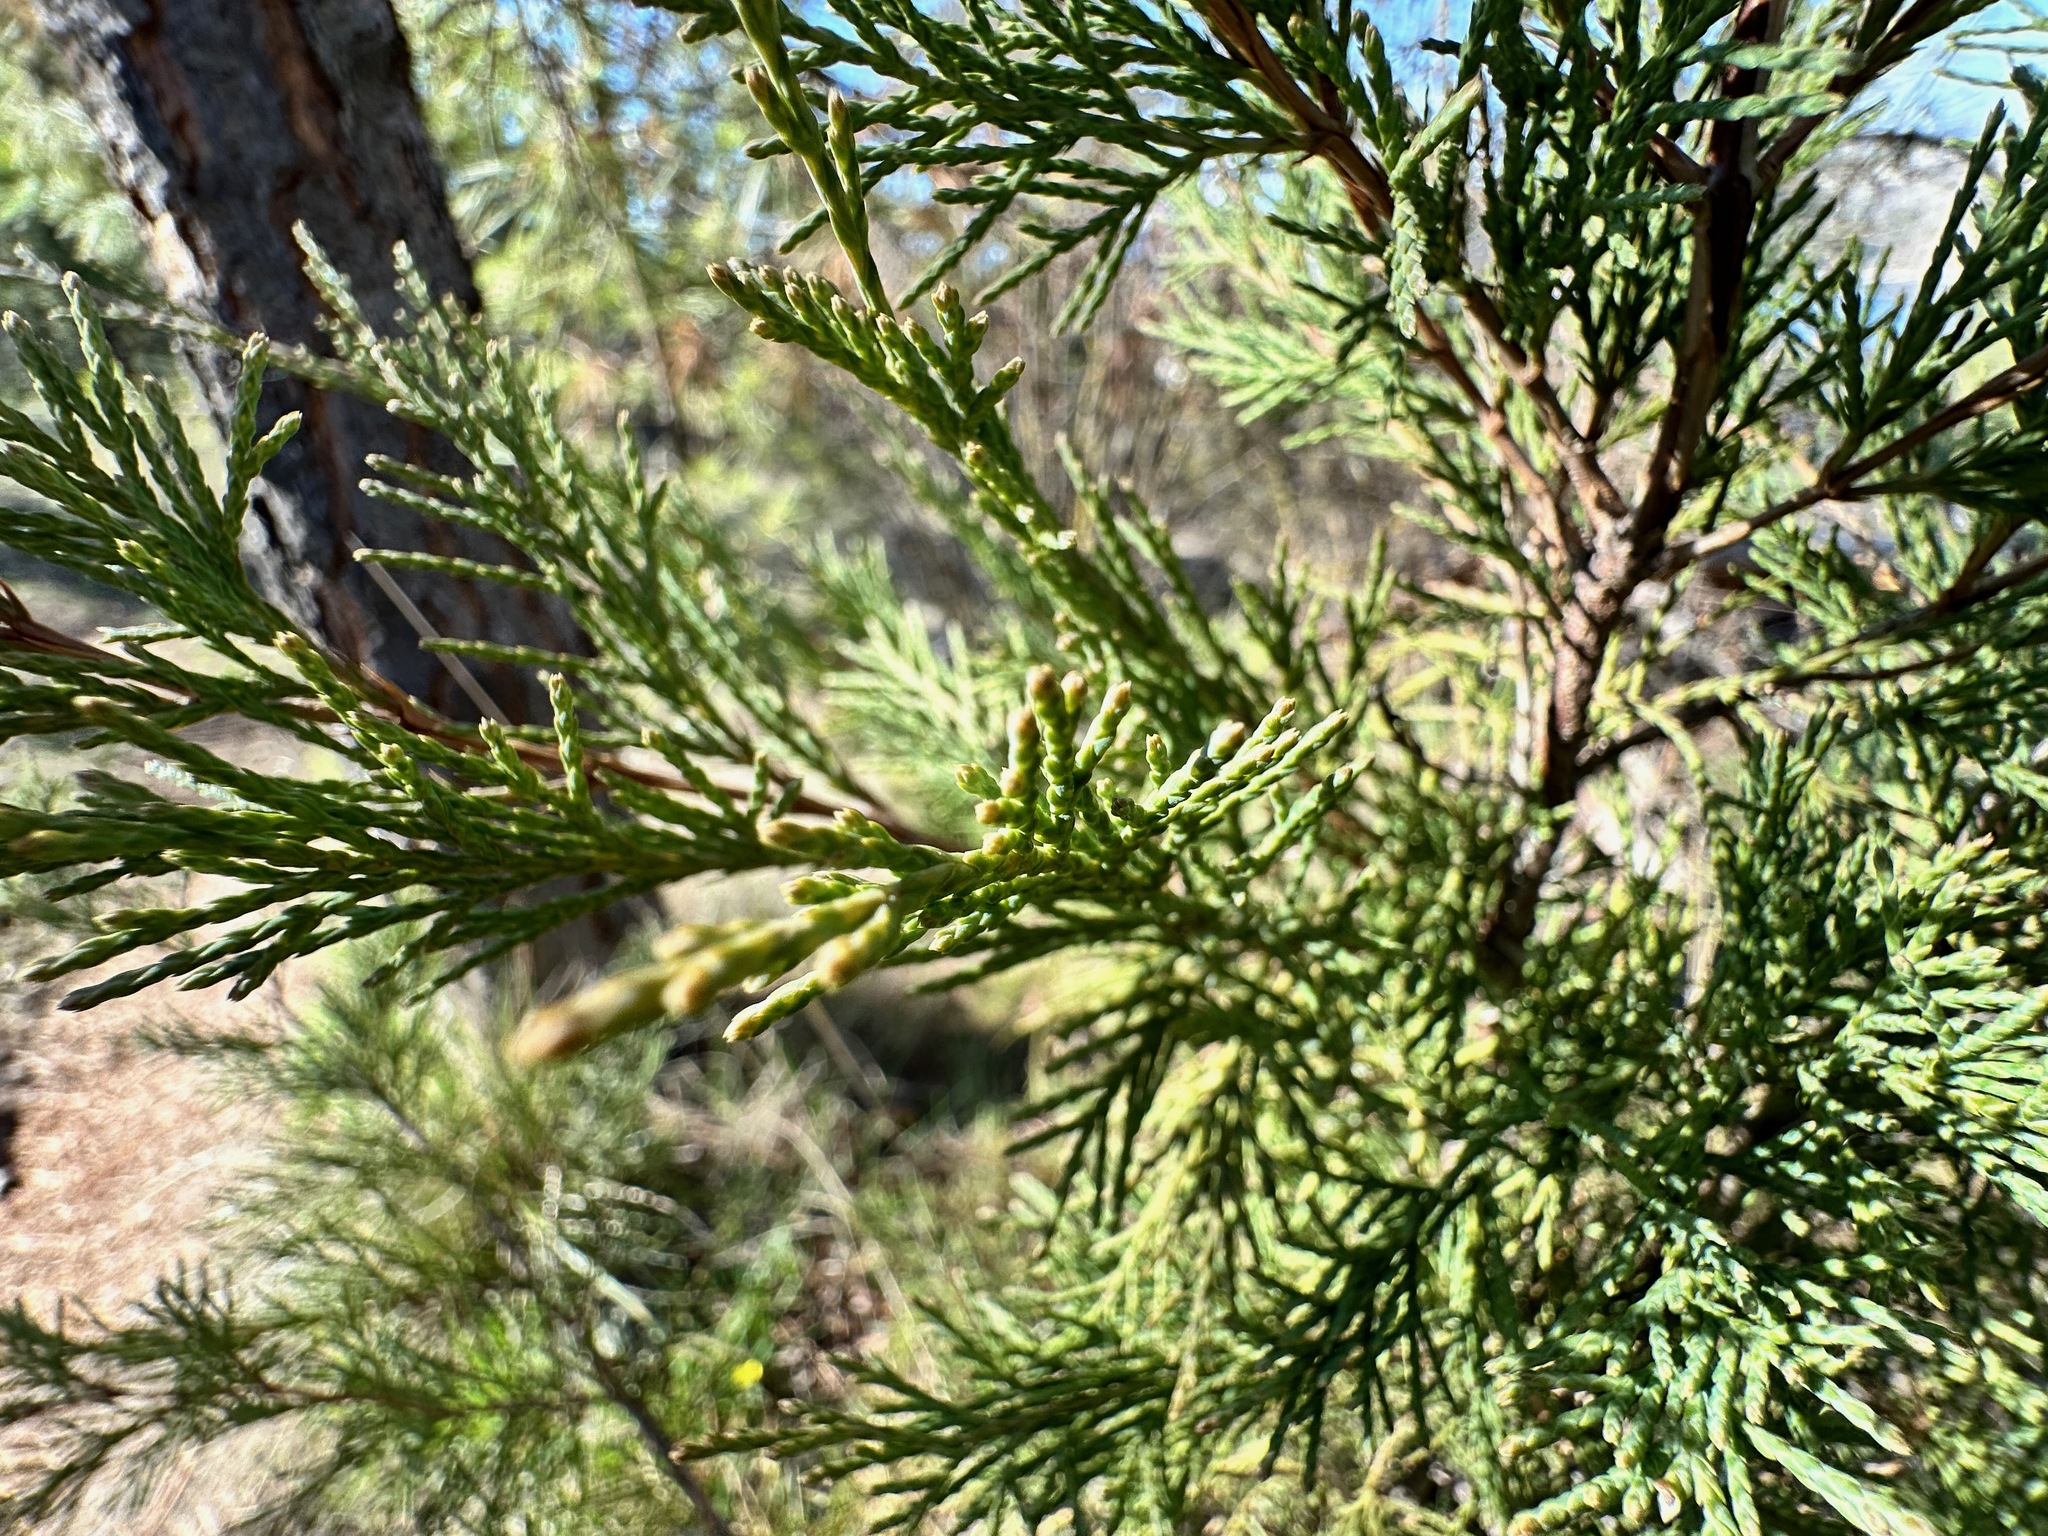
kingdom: Plantae
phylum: Tracheophyta
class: Pinopsida
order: Pinales
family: Cupressaceae
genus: Juniperus
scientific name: Juniperus scopulorum
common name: Rocky mountain juniper
